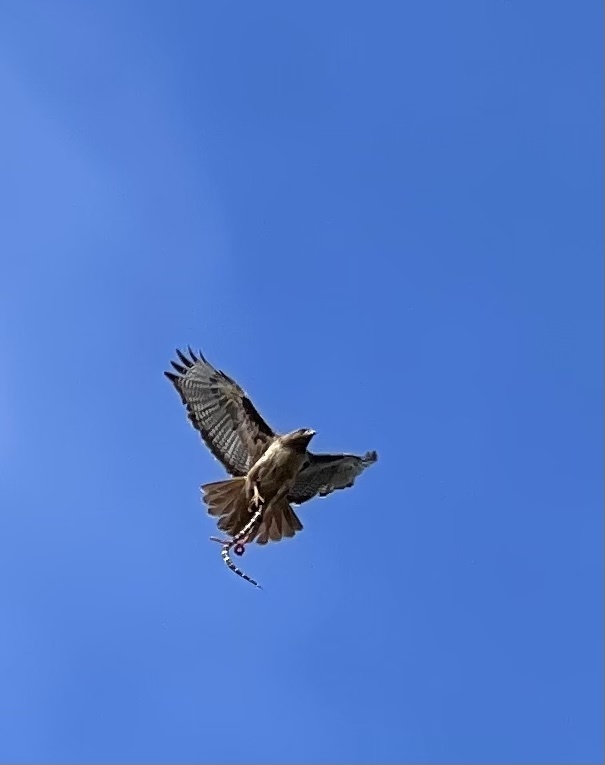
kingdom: Animalia
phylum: Chordata
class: Squamata
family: Colubridae
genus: Lampropeltis
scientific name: Lampropeltis californiae
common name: California kingsnake
